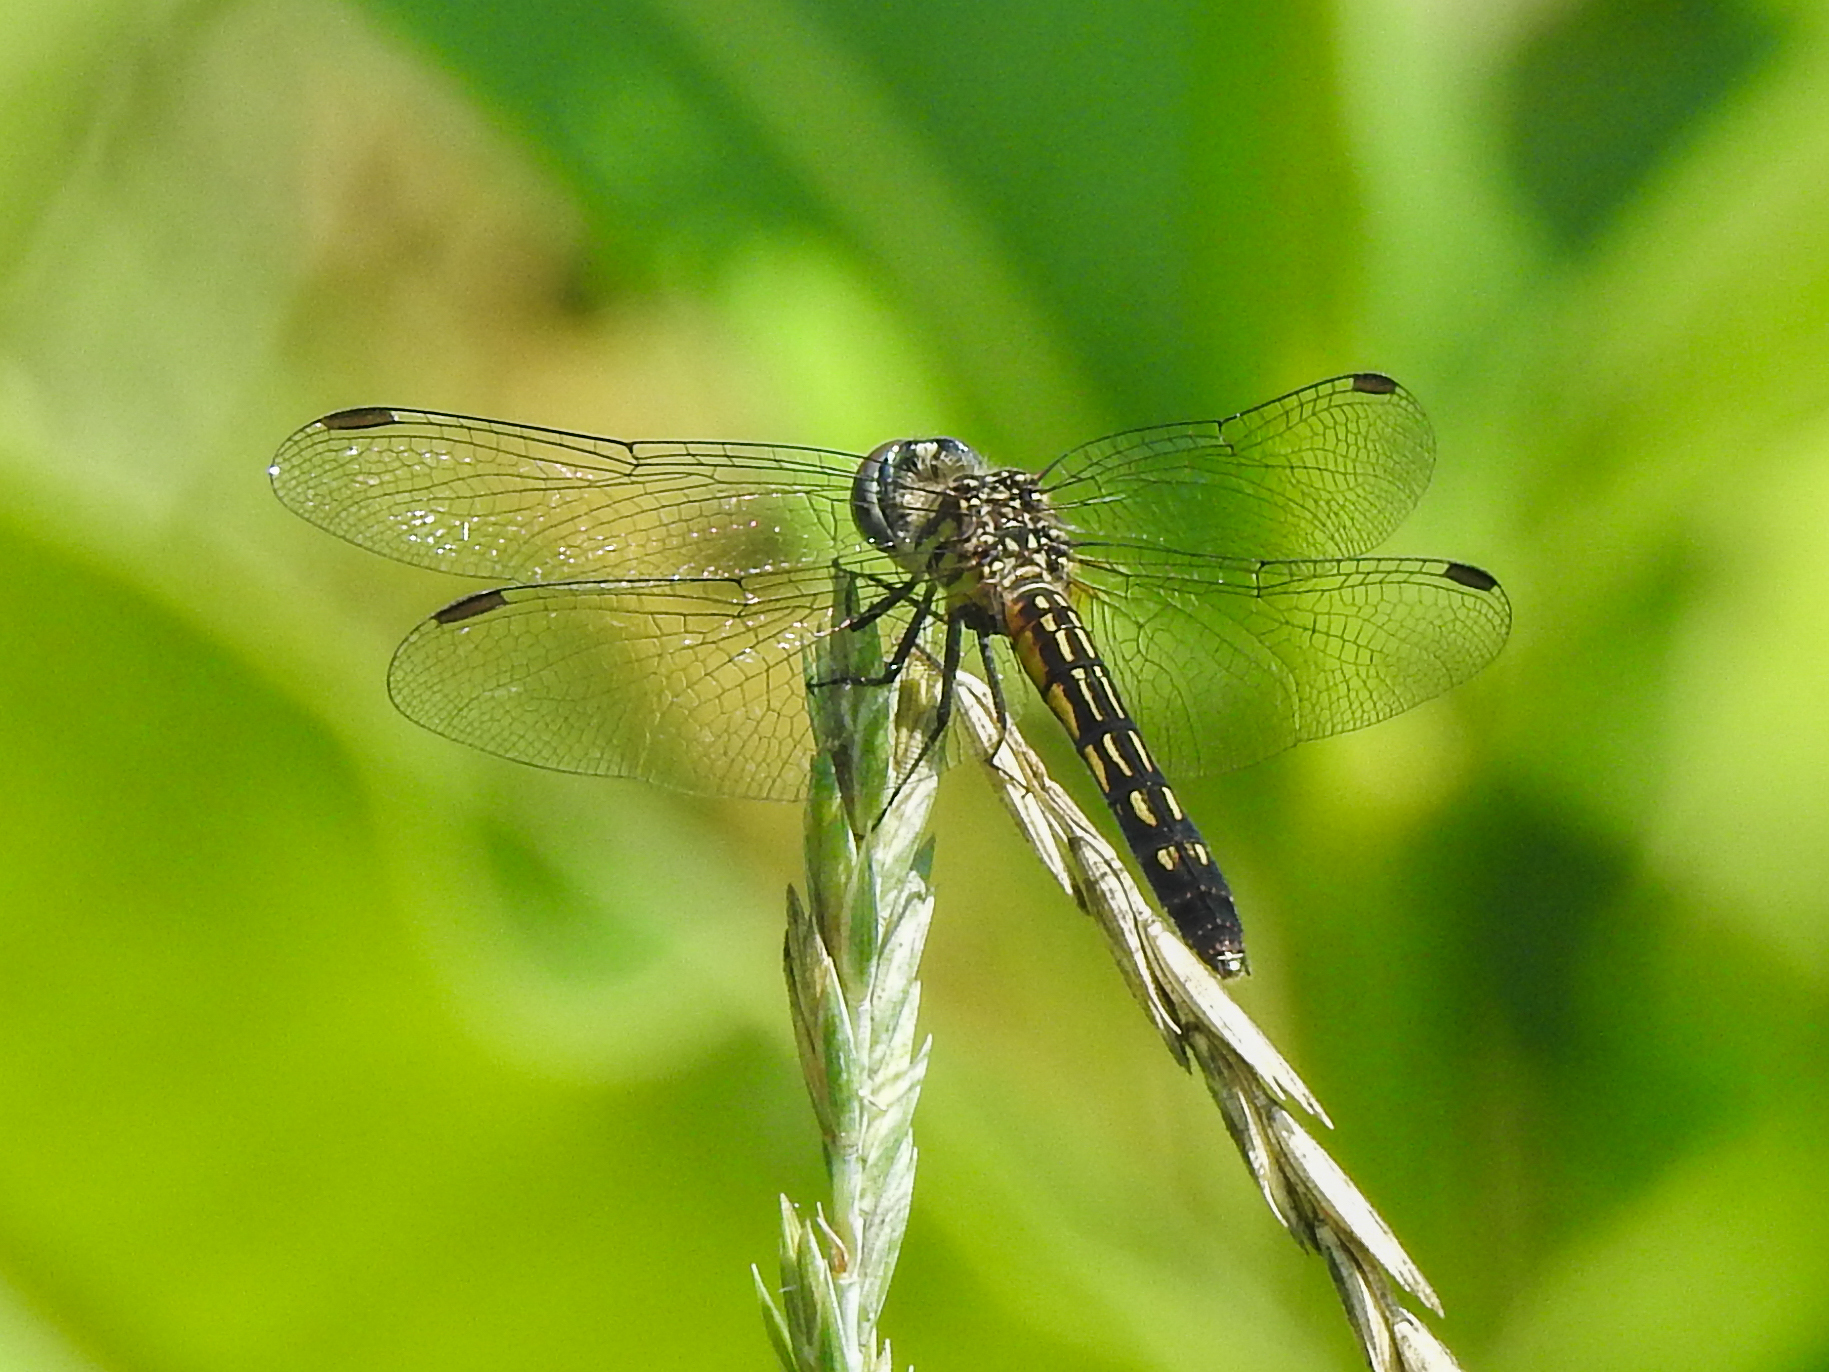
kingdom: Animalia
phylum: Arthropoda
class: Insecta
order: Odonata
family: Libellulidae
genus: Pachydiplax
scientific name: Pachydiplax longipennis
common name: Blue dasher
